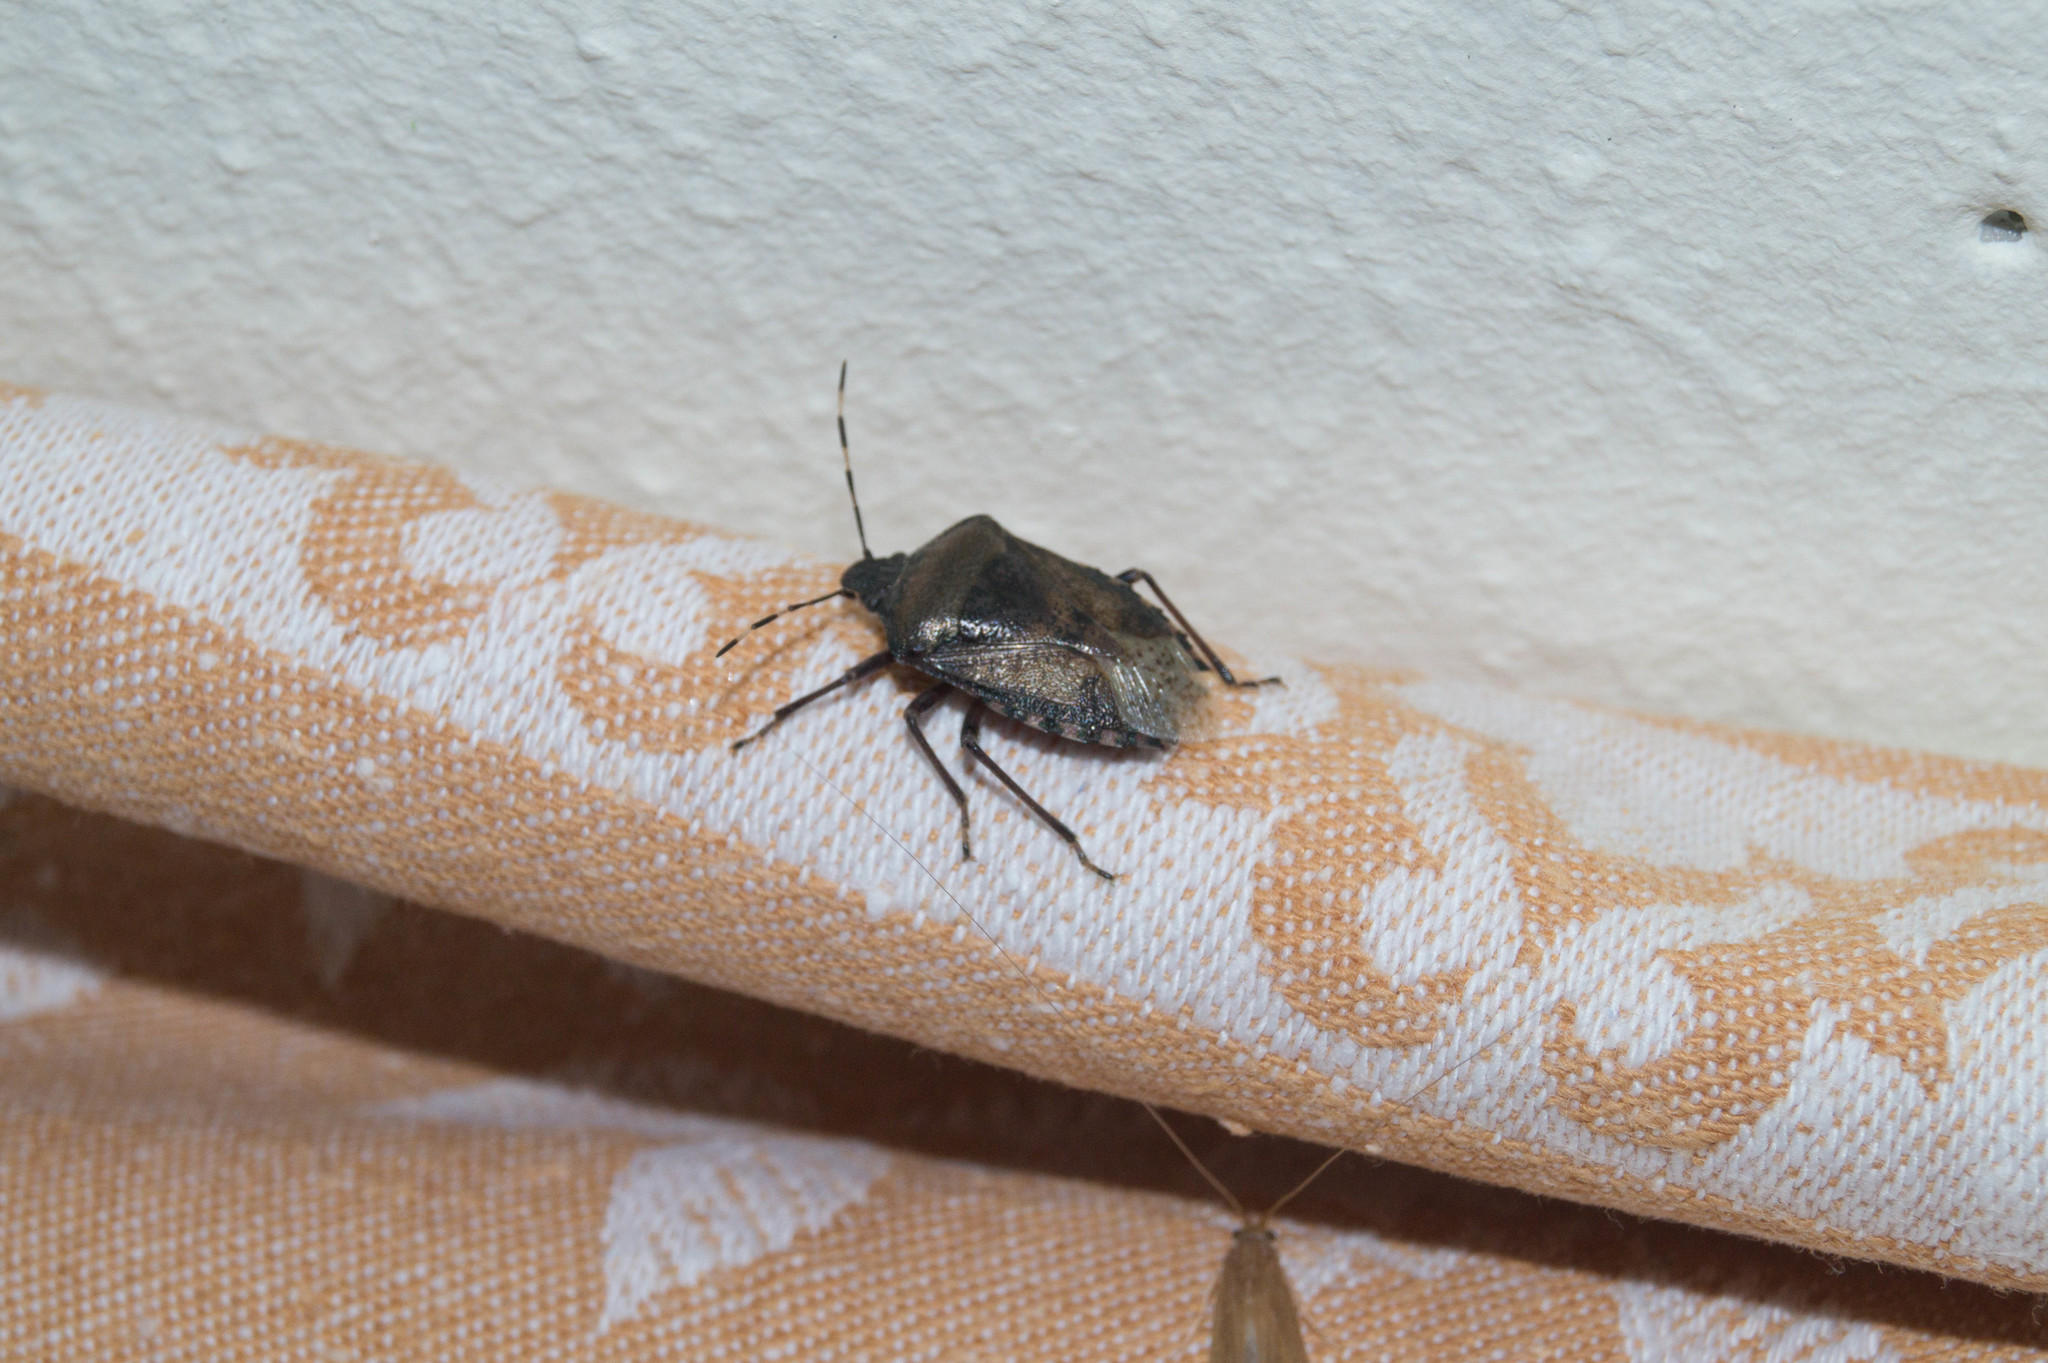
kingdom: Animalia
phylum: Arthropoda
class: Insecta
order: Hemiptera
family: Pentatomidae
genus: Rhaphigaster
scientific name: Rhaphigaster nebulosa
